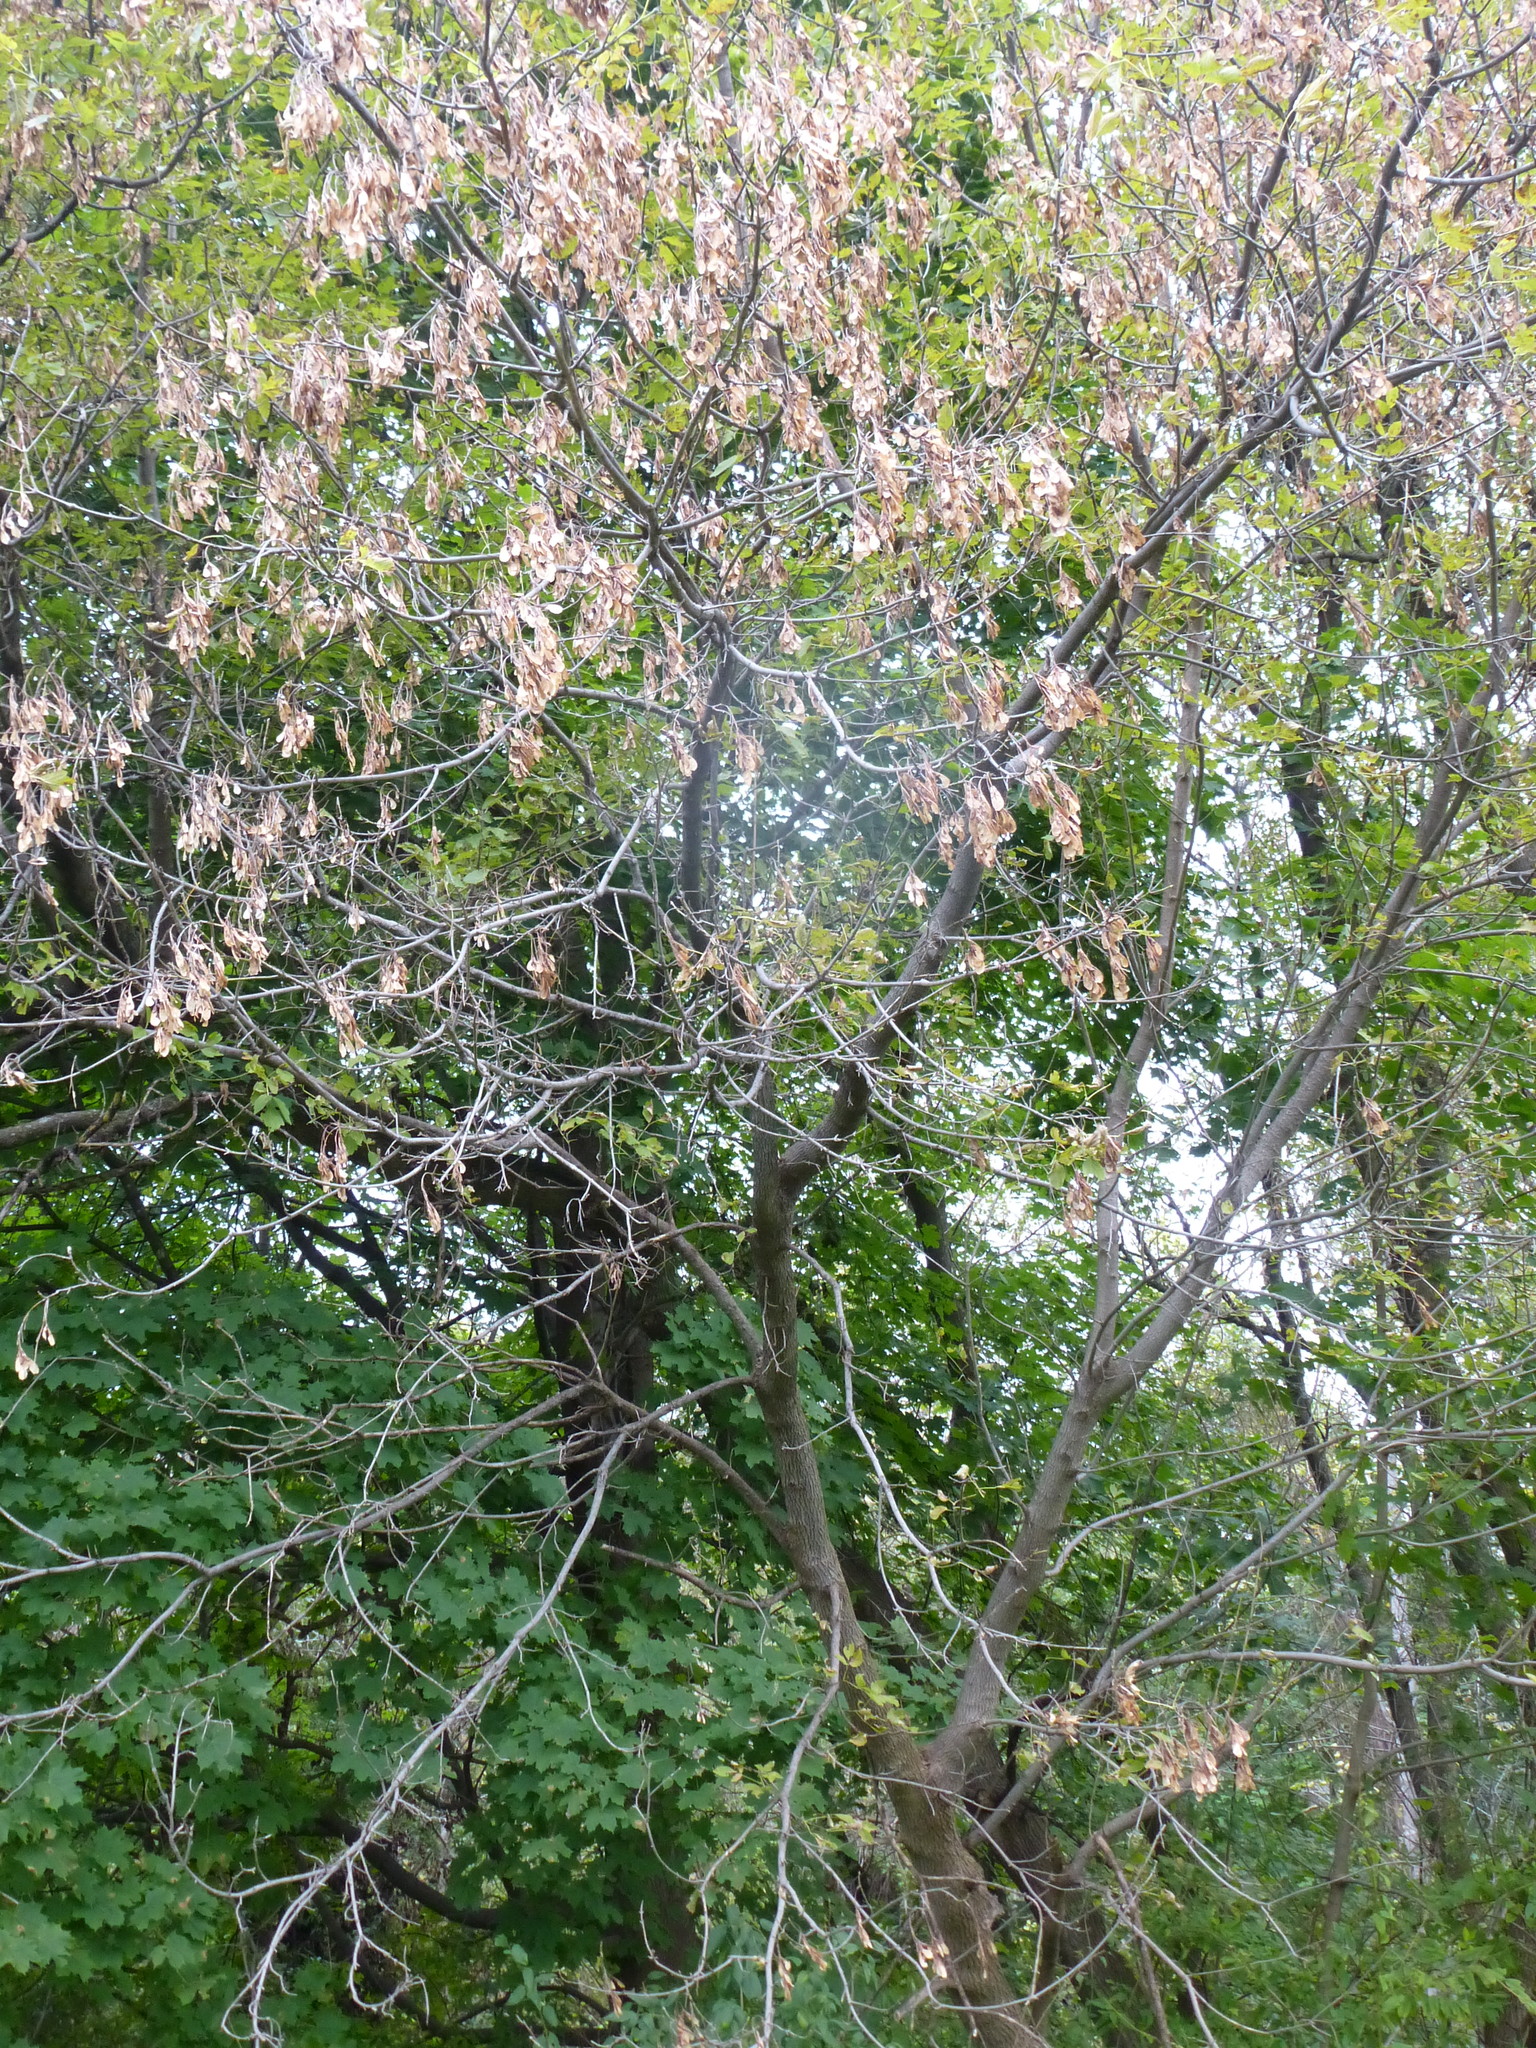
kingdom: Plantae
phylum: Tracheophyta
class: Magnoliopsida
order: Sapindales
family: Sapindaceae
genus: Acer
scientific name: Acer negundo
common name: Ashleaf maple
